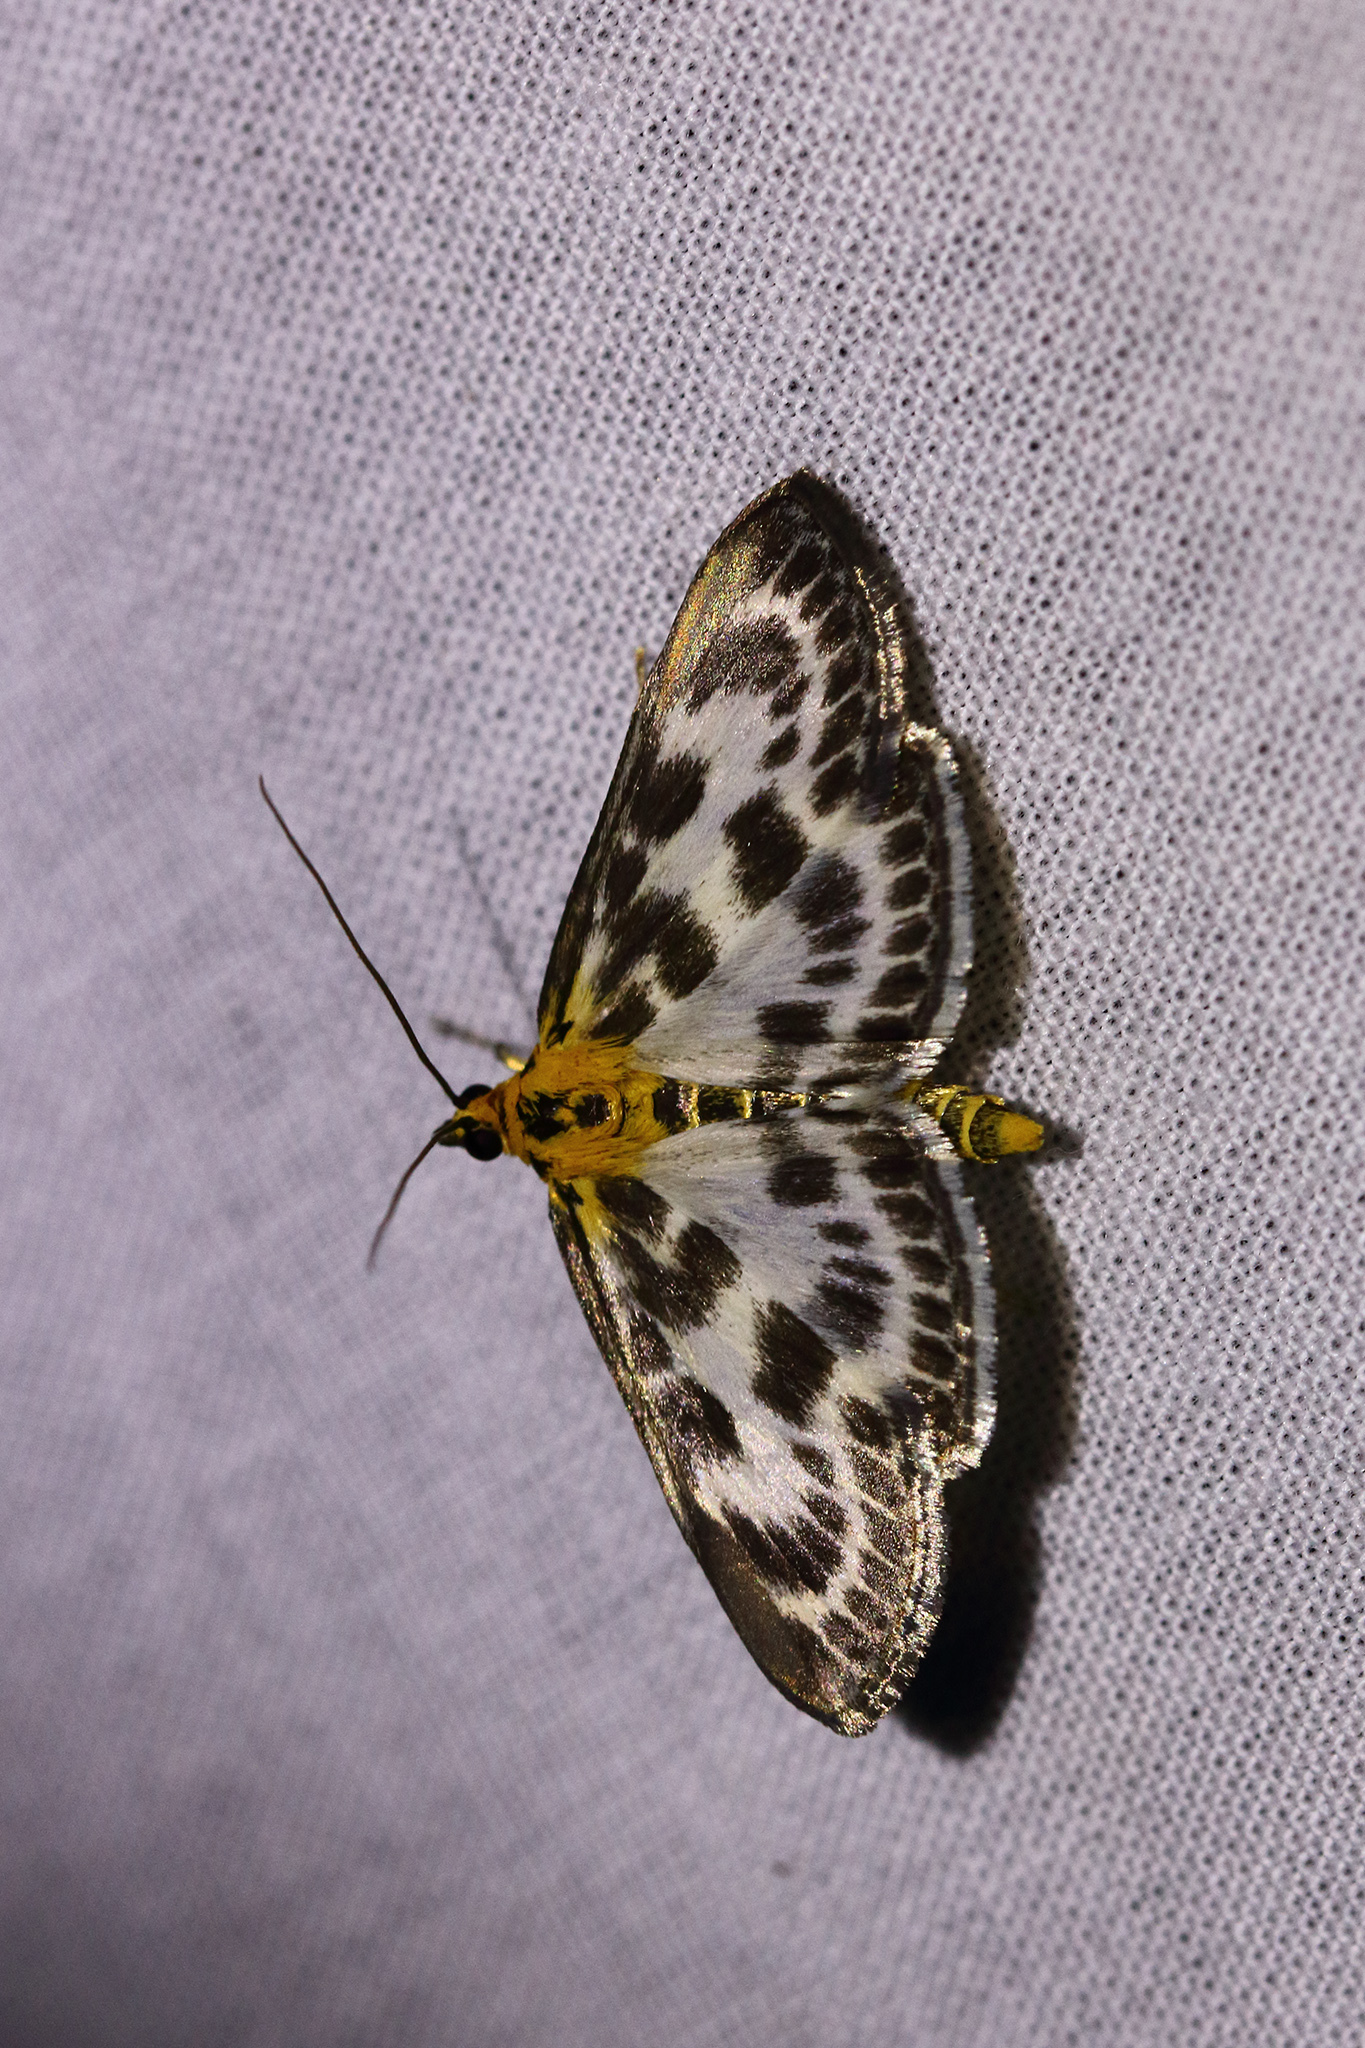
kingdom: Animalia
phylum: Arthropoda
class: Insecta
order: Lepidoptera
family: Crambidae
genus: Anania
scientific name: Anania hortulata
